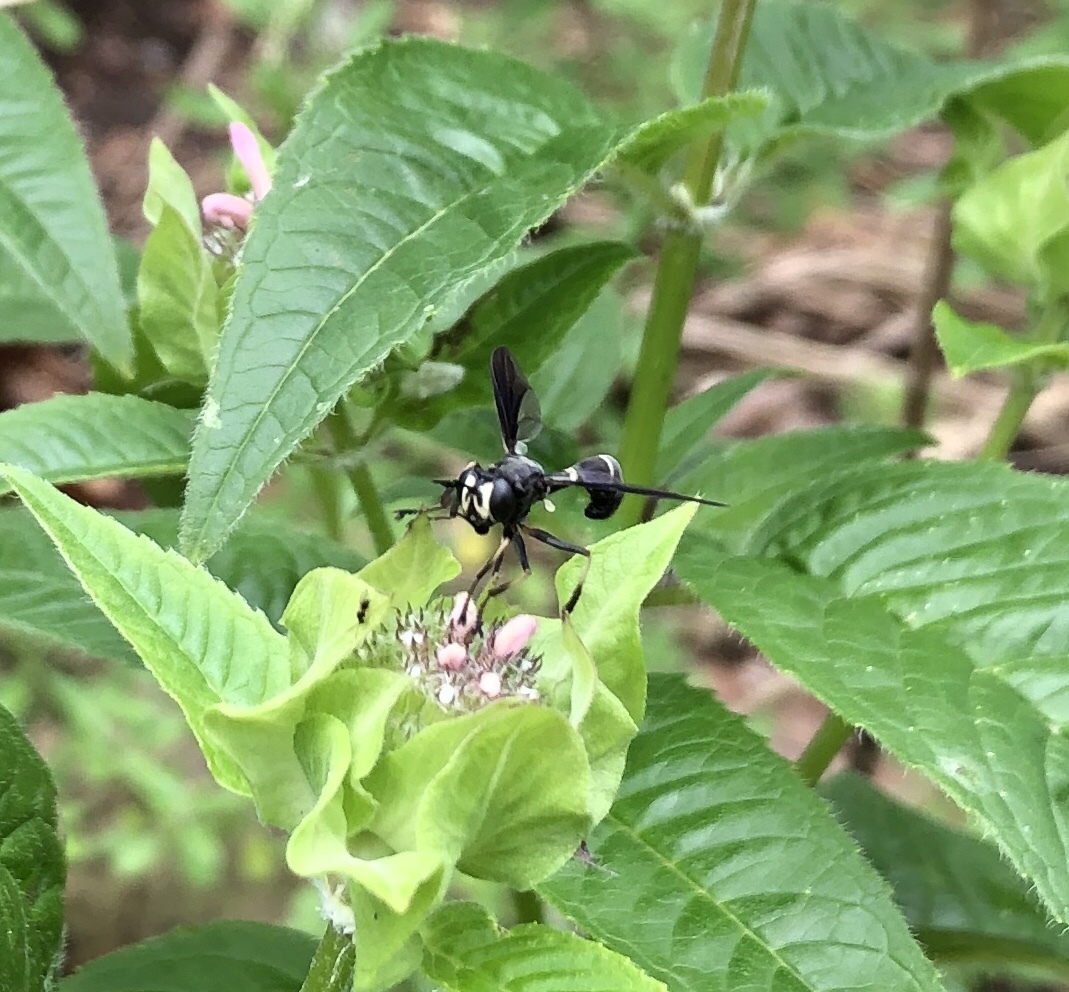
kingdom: Animalia
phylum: Arthropoda
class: Insecta
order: Diptera
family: Conopidae
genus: Physocephala
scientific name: Physocephala tibialis
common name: Common eastern physocephala
